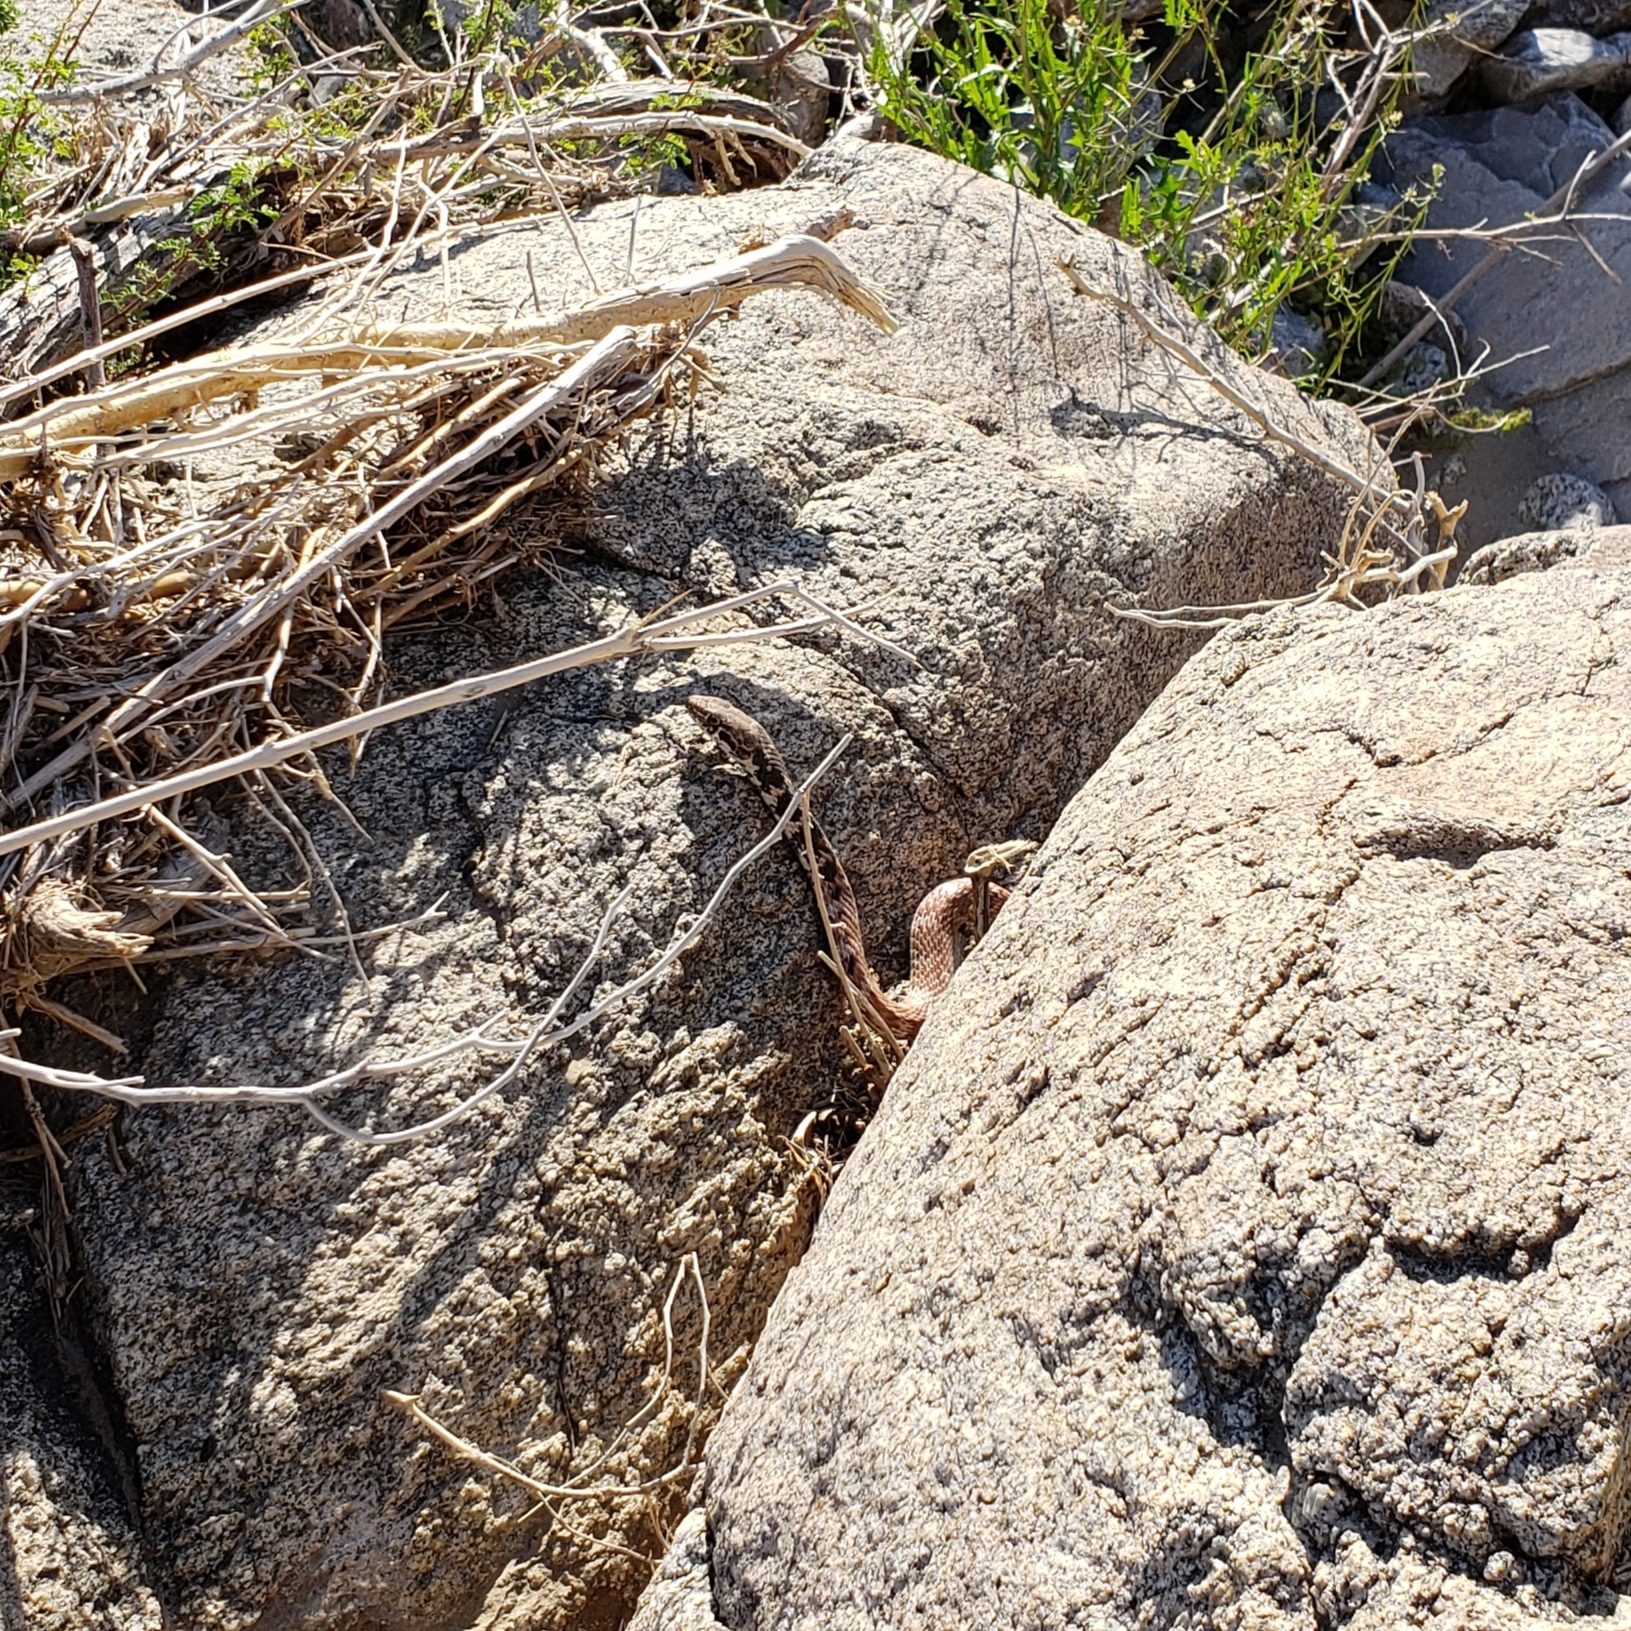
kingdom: Animalia
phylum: Chordata
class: Squamata
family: Colubridae
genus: Masticophis
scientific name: Masticophis flagellum
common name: Coachwhip
